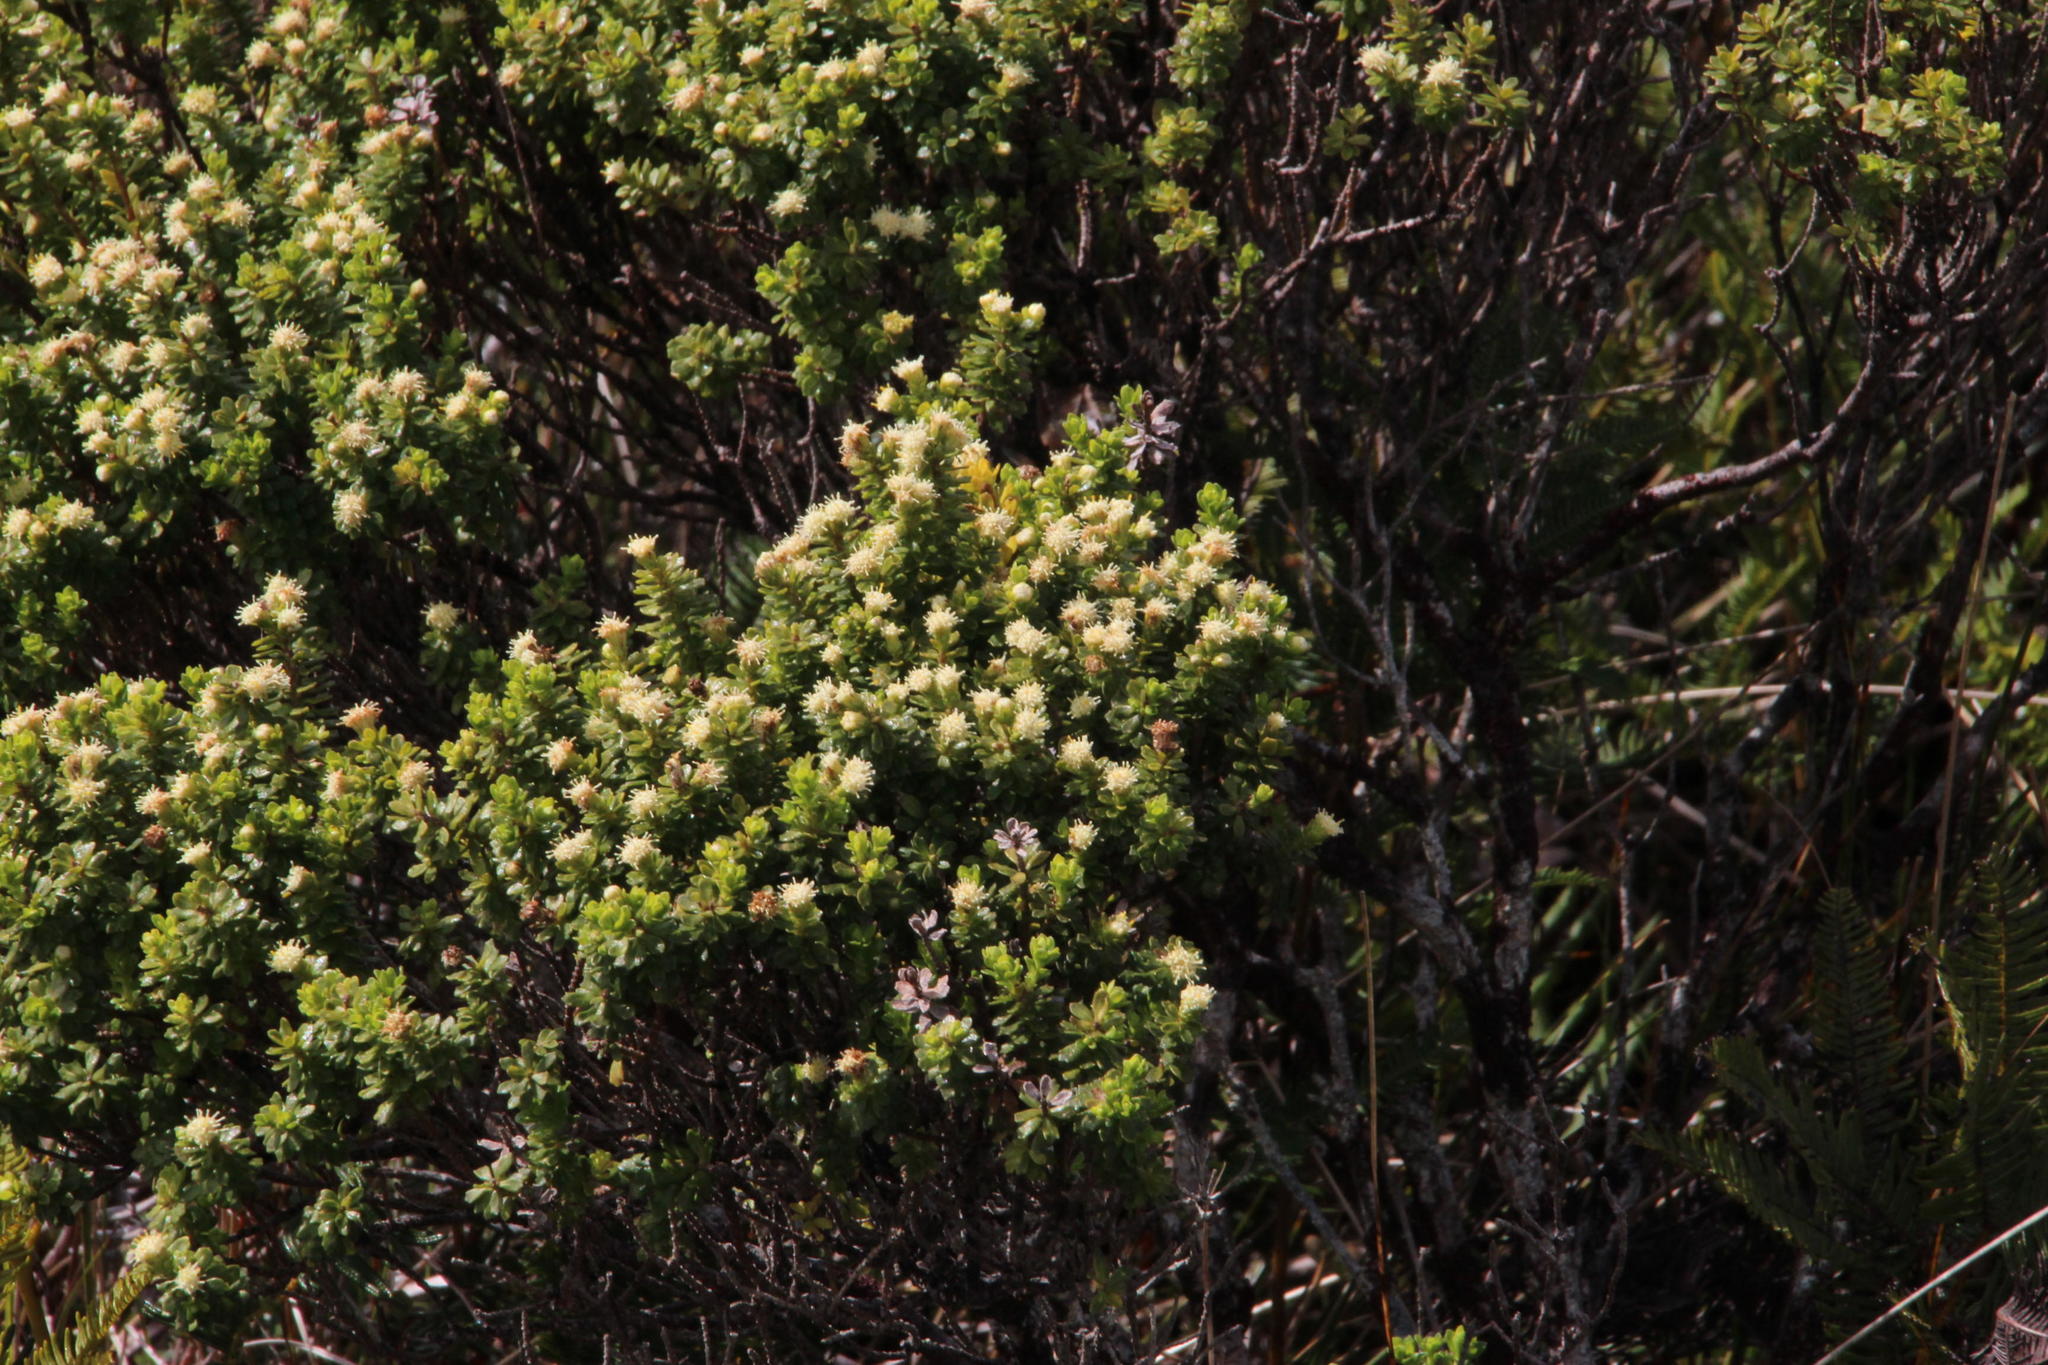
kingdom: Plantae
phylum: Tracheophyta
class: Magnoliopsida
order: Asterales
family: Asteraceae
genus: Baccharis
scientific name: Baccharis patagonica
